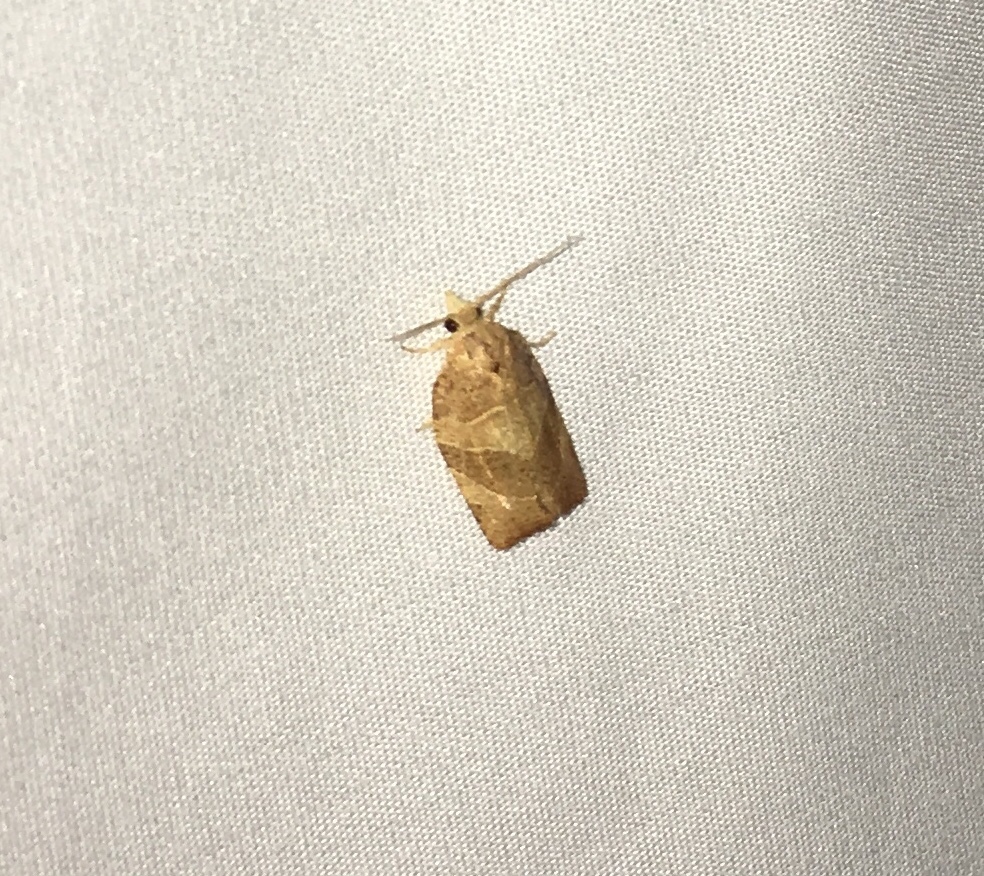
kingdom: Animalia
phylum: Arthropoda
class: Insecta
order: Lepidoptera
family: Tortricidae
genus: Pandemis
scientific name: Pandemis limitata
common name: Three-lined leafroller moth
